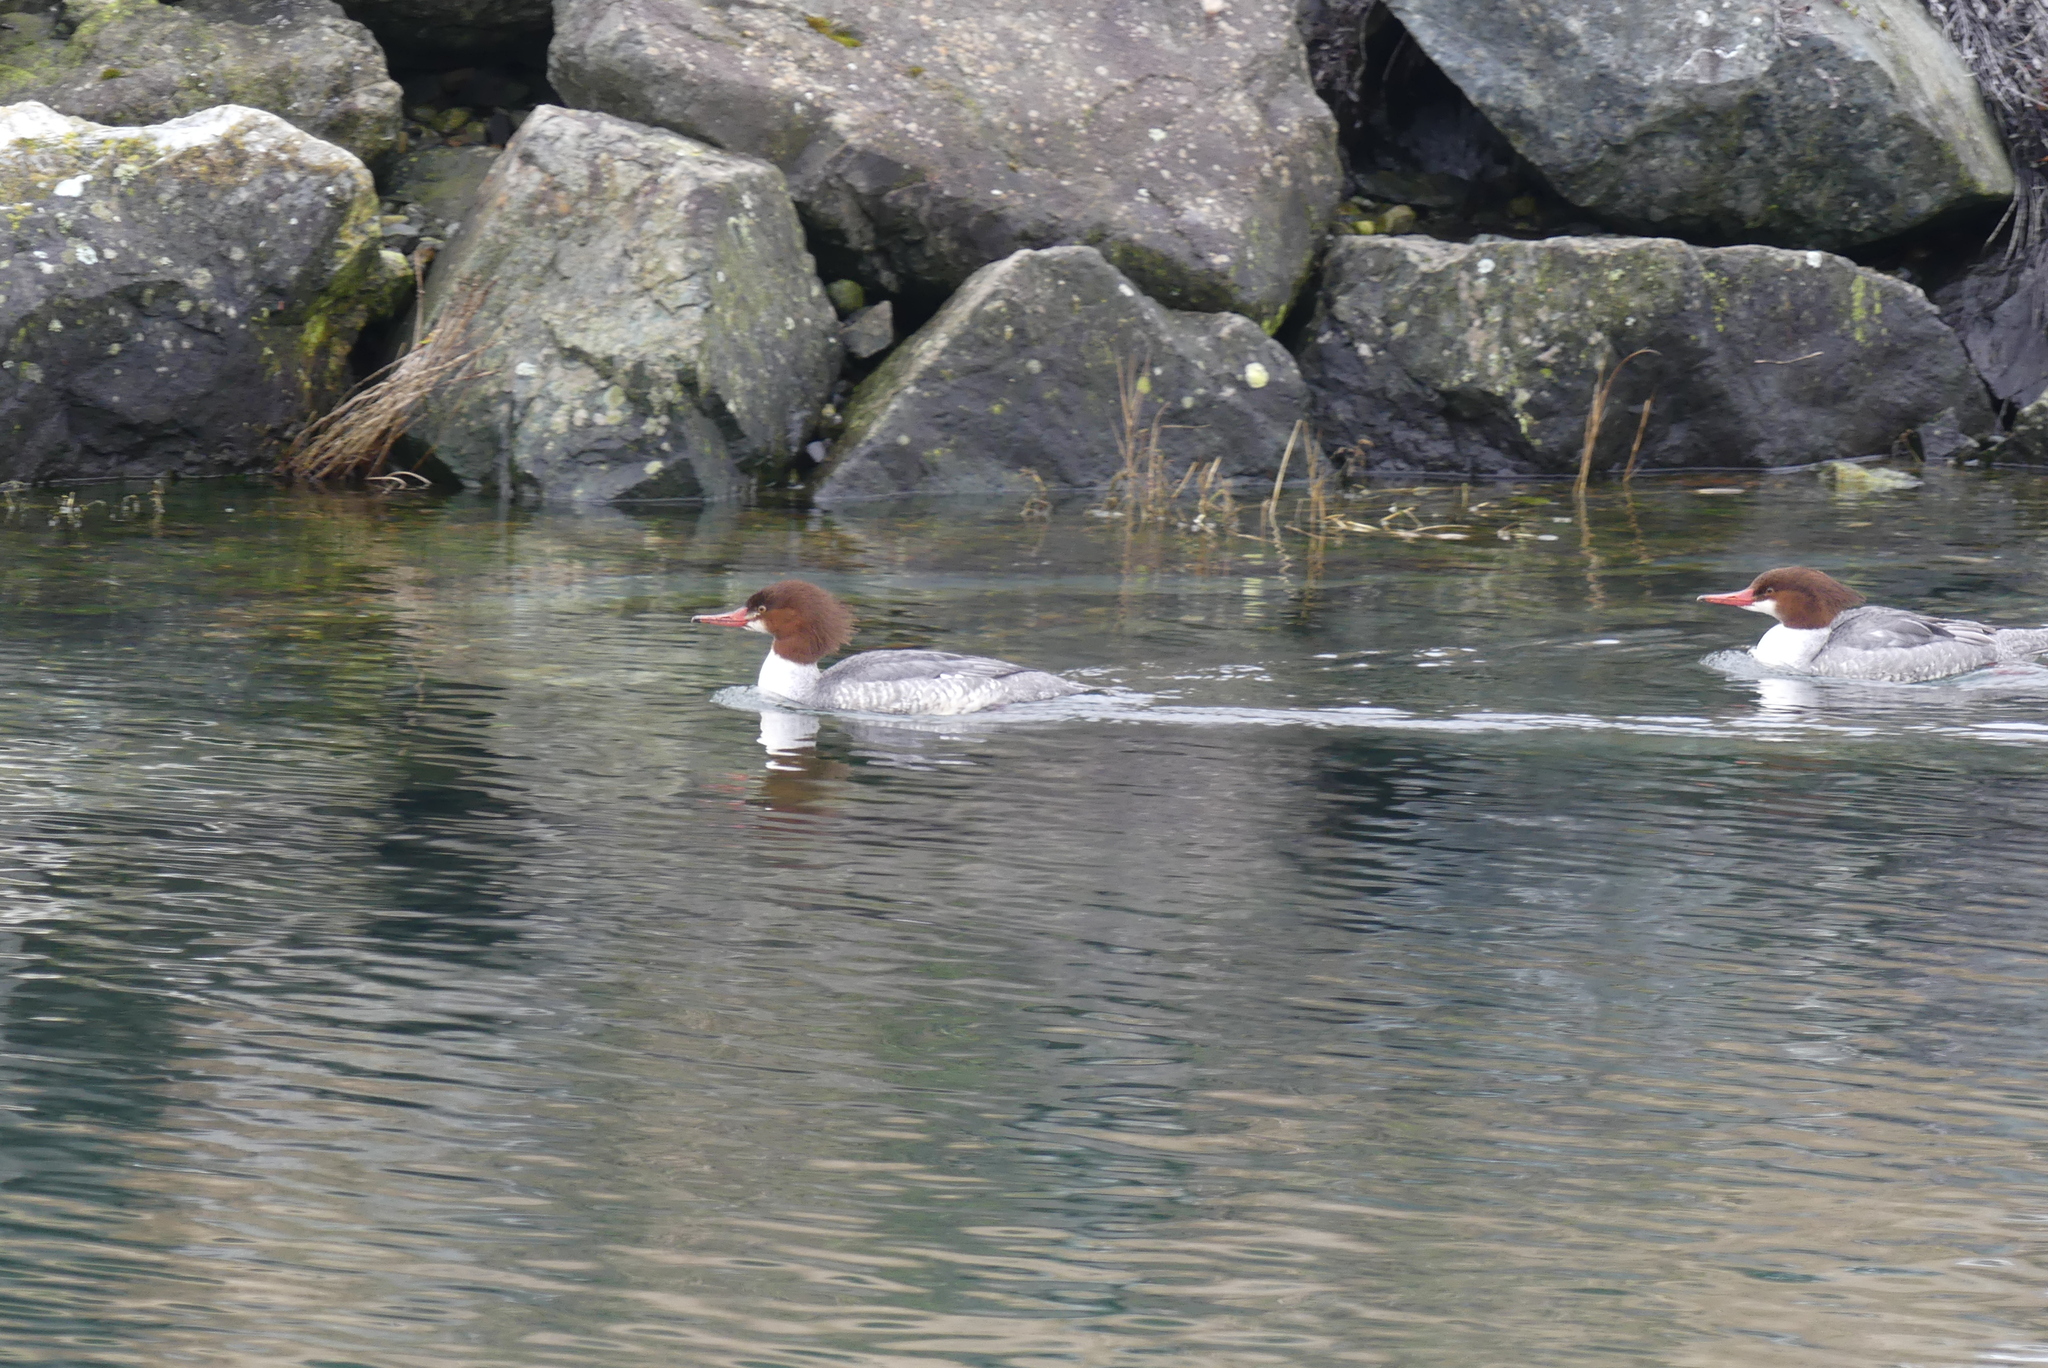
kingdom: Animalia
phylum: Chordata
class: Aves
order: Anseriformes
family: Anatidae
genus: Mergus
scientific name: Mergus merganser
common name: Common merganser
